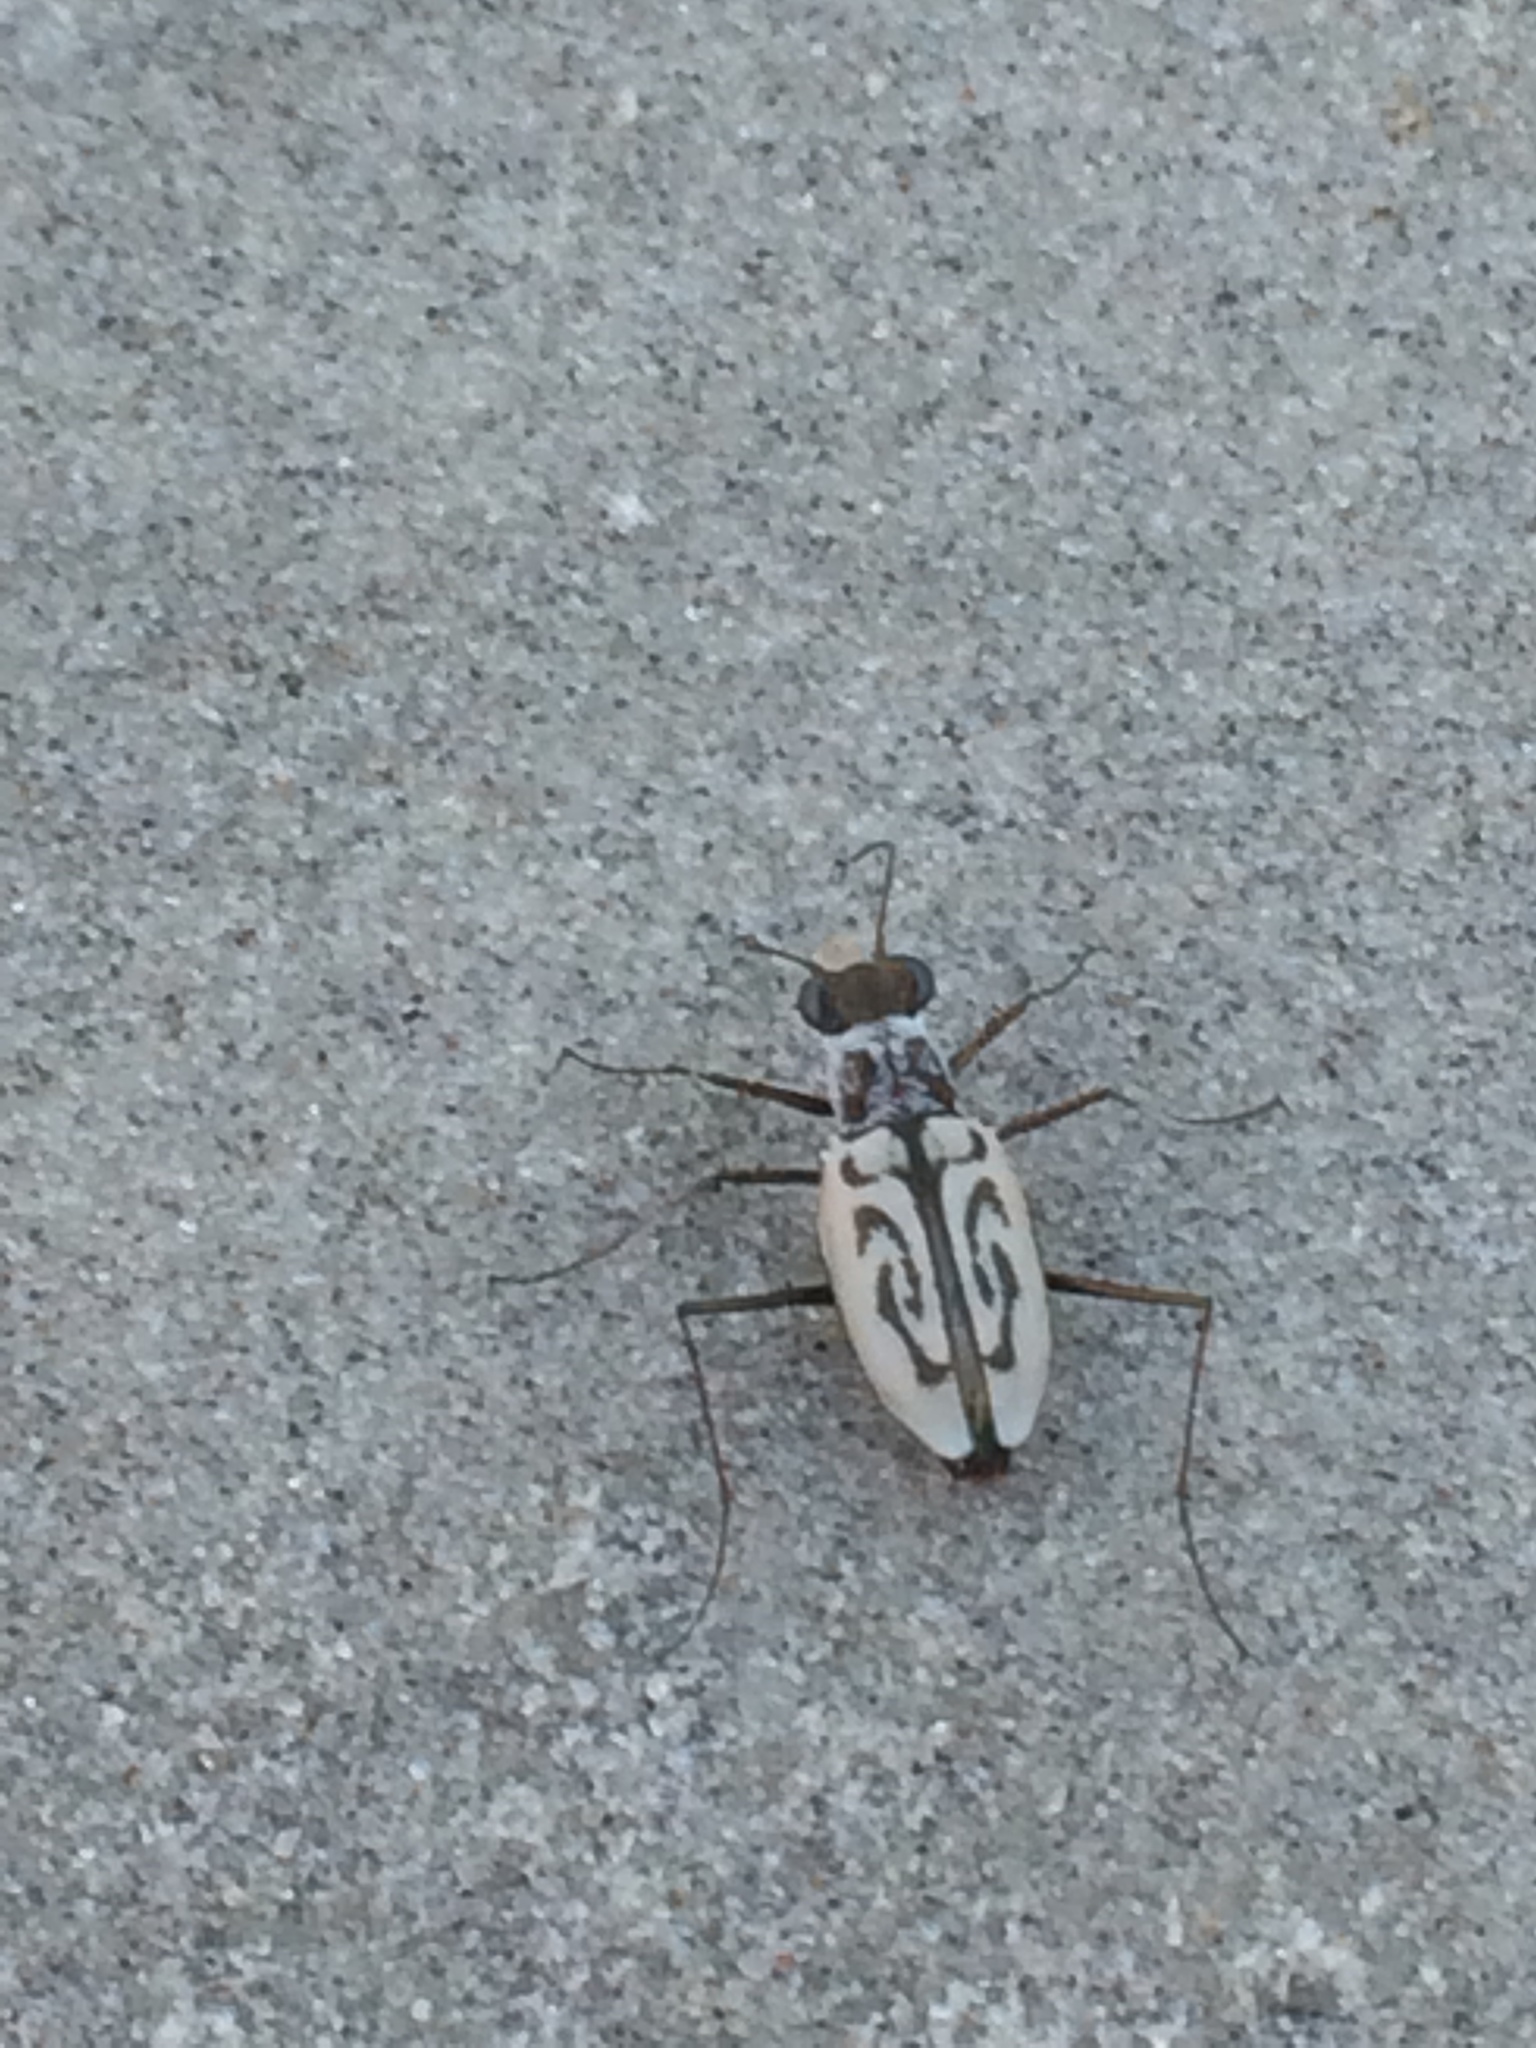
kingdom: Animalia
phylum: Arthropoda
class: Insecta
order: Coleoptera
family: Carabidae
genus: Habroscelimorpha
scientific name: Habroscelimorpha dorsalis
